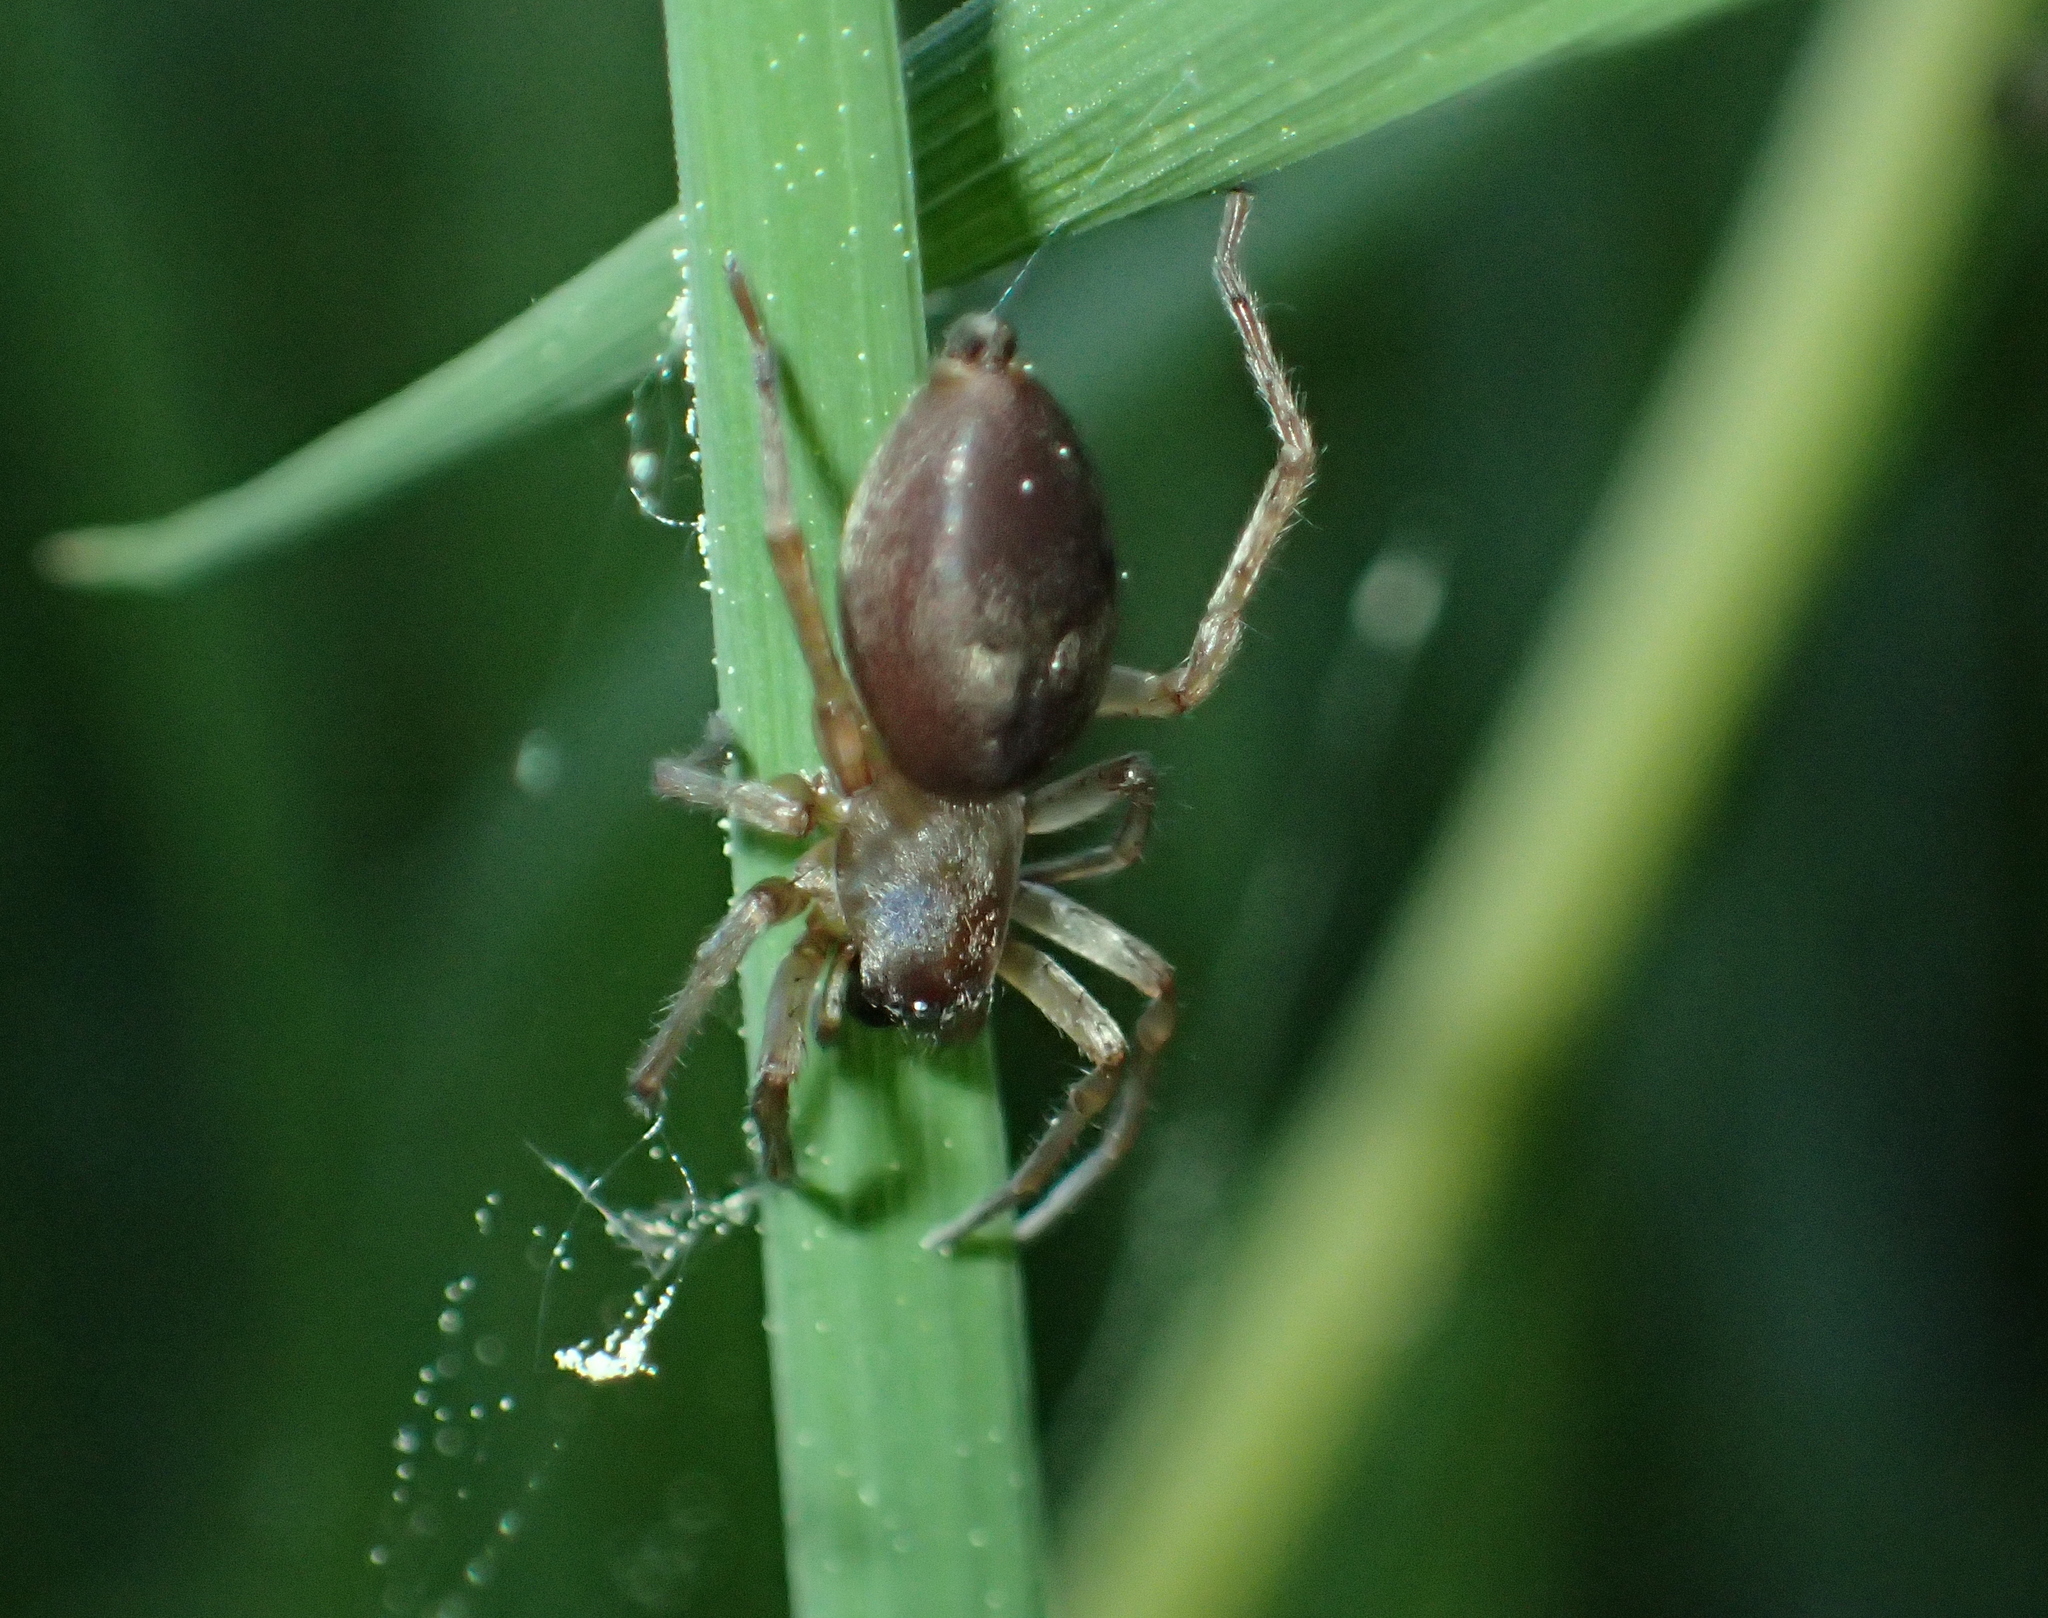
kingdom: Animalia
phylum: Arthropoda
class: Arachnida
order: Araneae
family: Clubionidae
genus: Clubiona
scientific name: Clubiona
